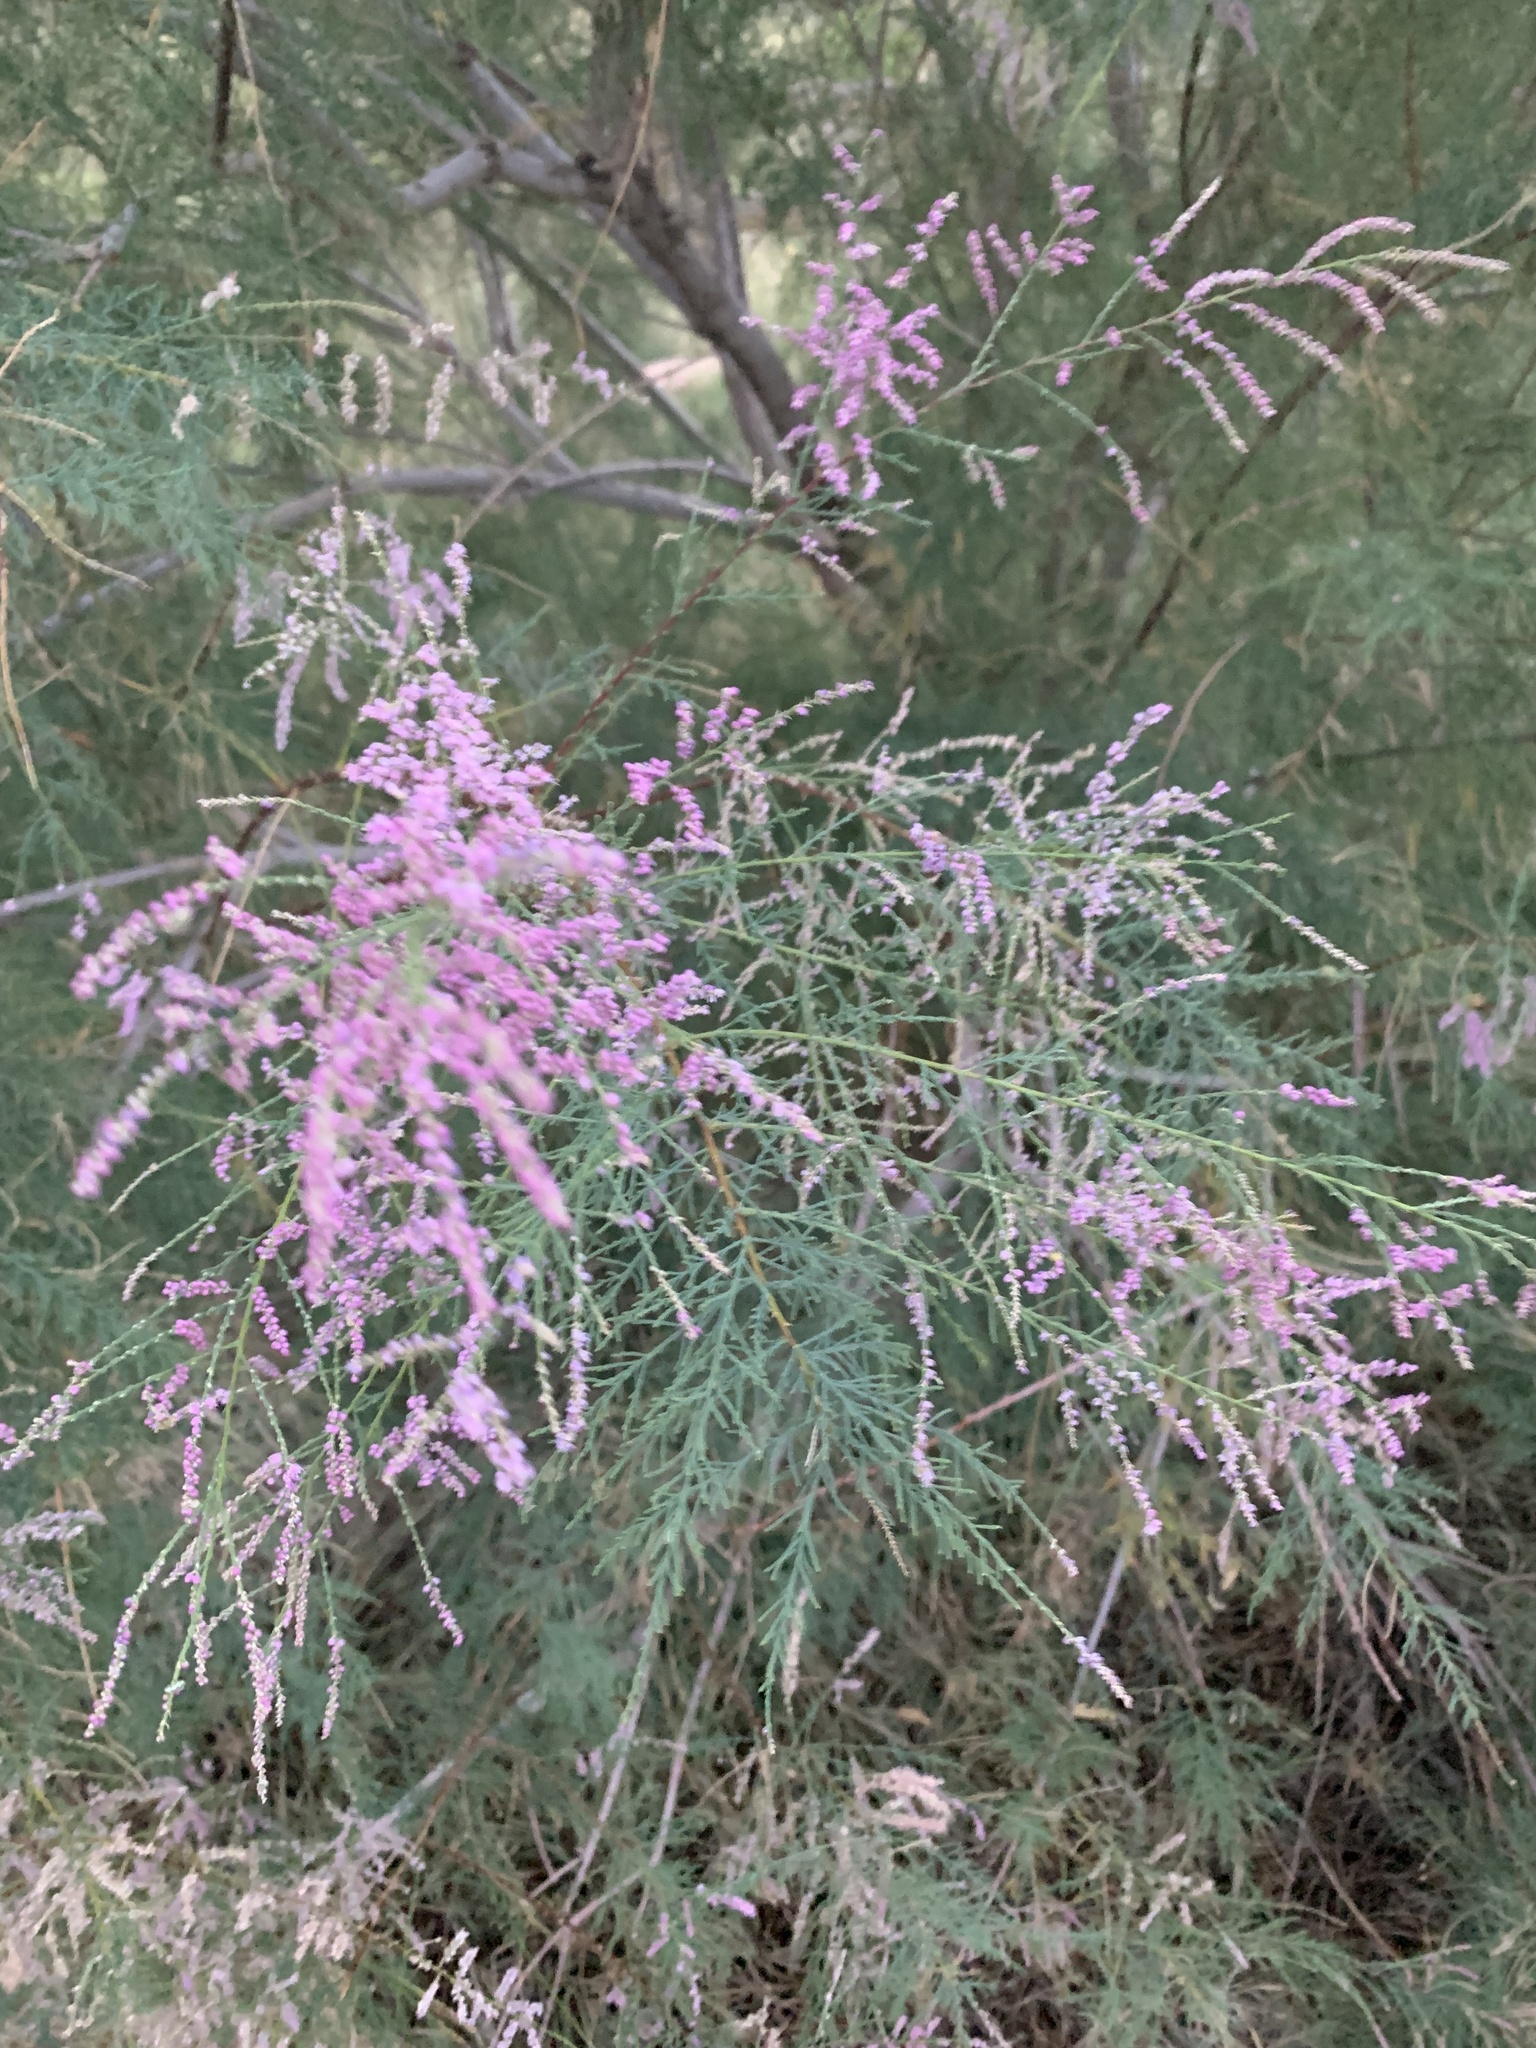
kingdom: Plantae
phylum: Tracheophyta
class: Magnoliopsida
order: Caryophyllales
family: Tamaricaceae
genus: Tamarix
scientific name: Tamarix
